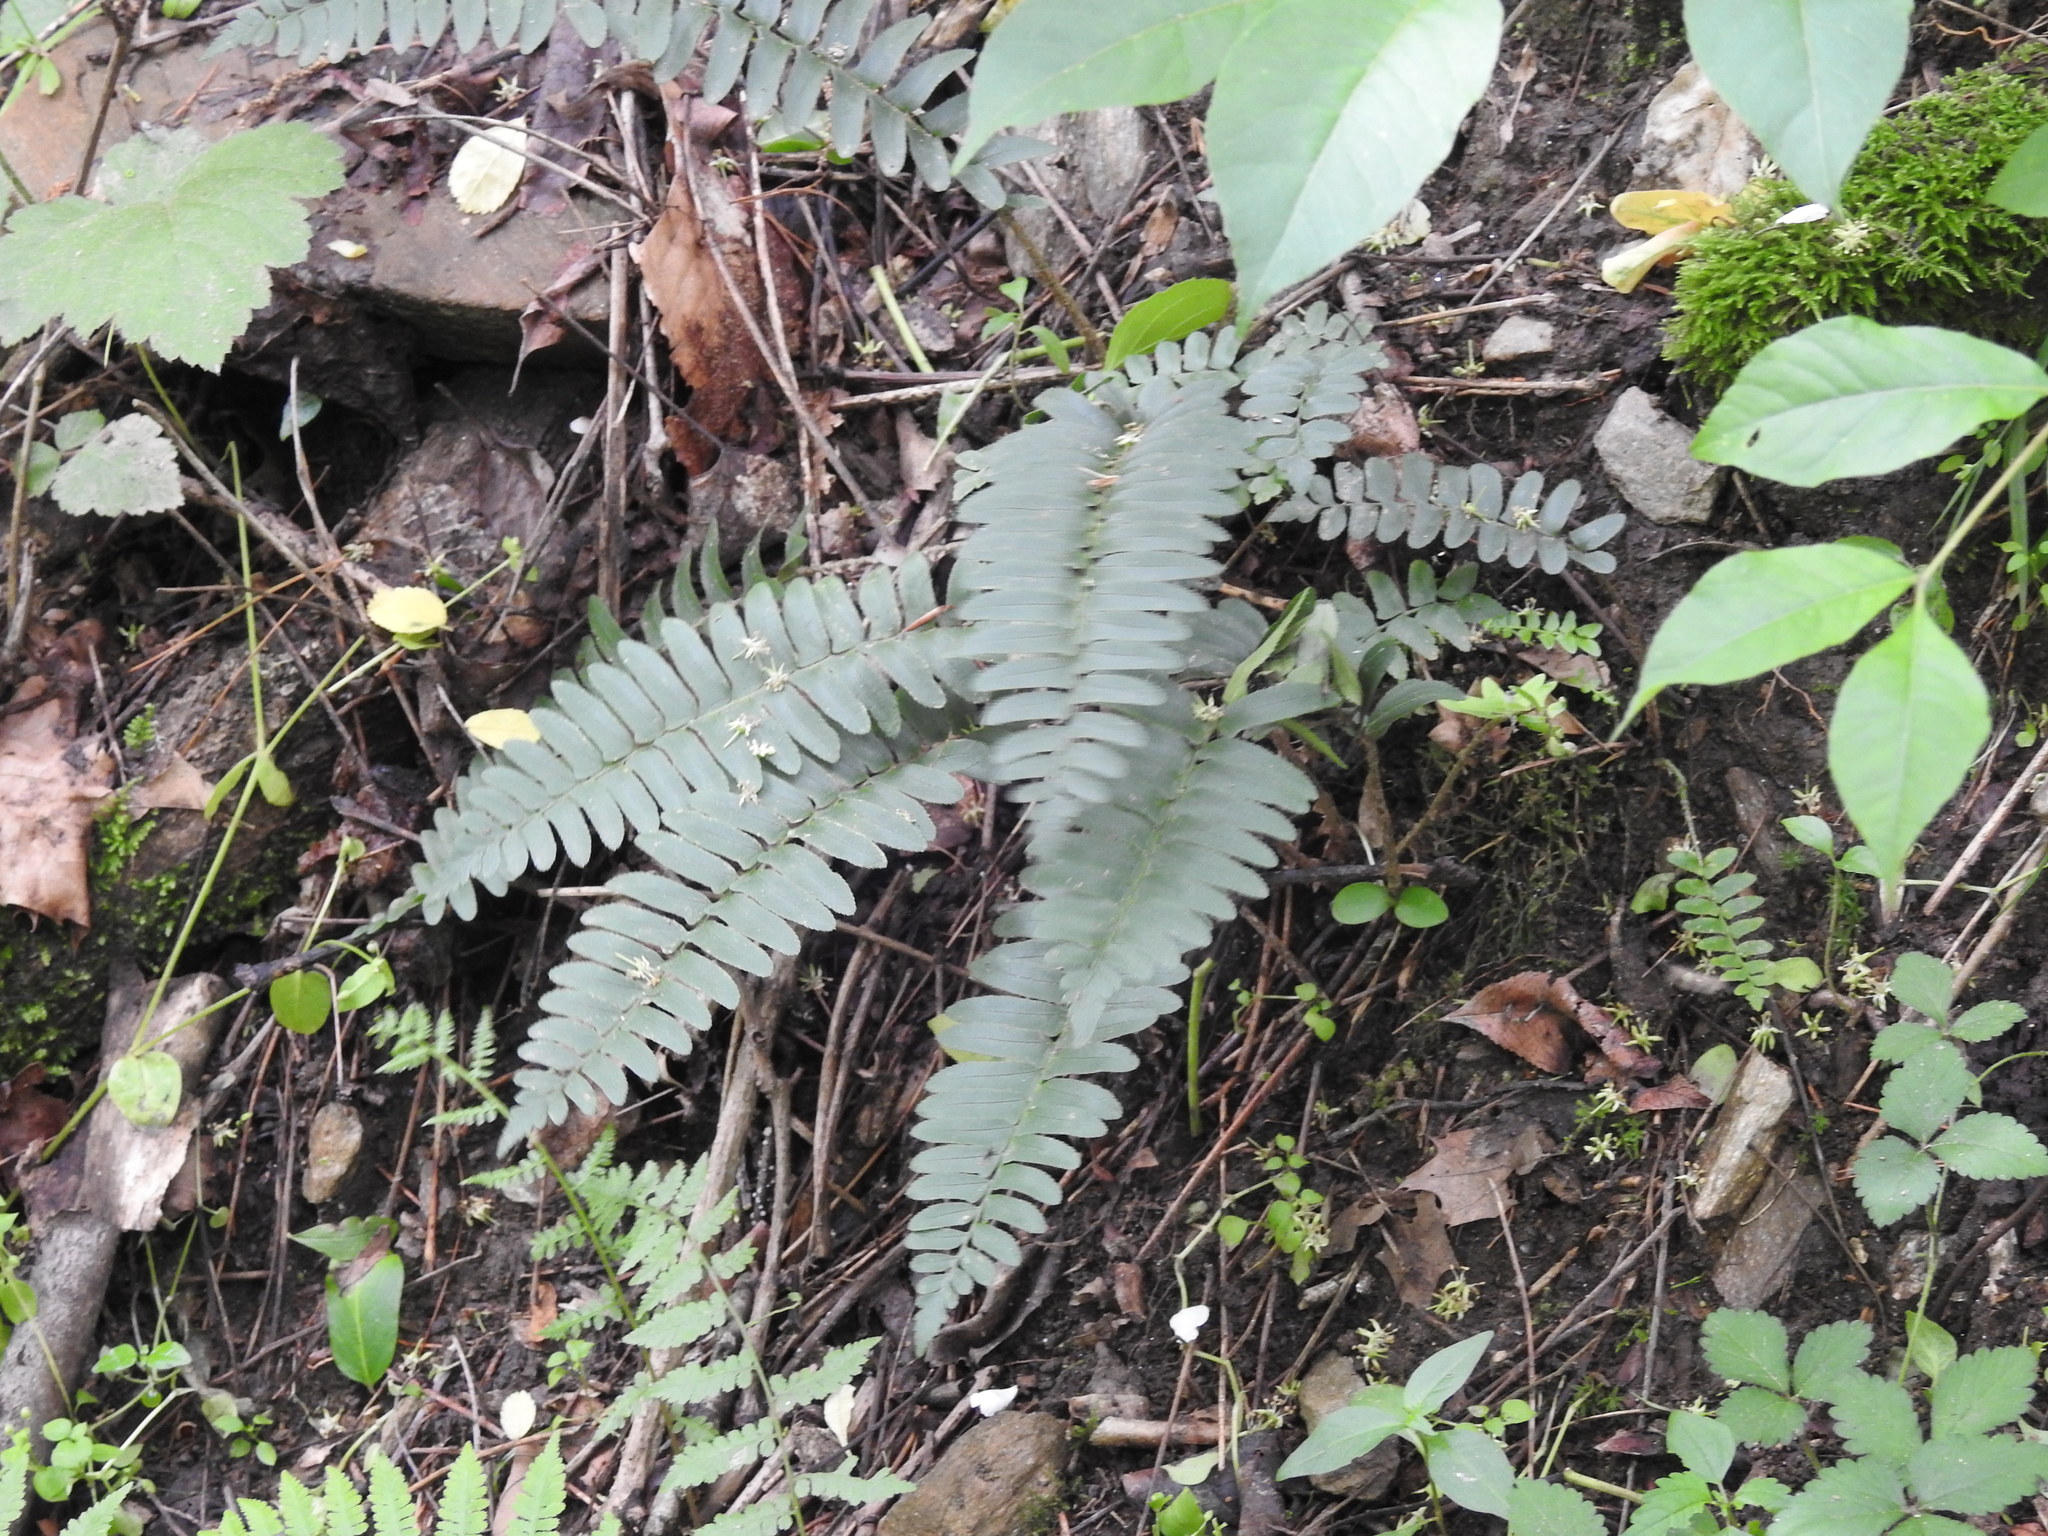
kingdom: Plantae
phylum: Tracheophyta
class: Polypodiopsida
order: Polypodiales
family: Dryopteridaceae
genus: Polystichum
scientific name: Polystichum acrostichoides
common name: Christmas fern
